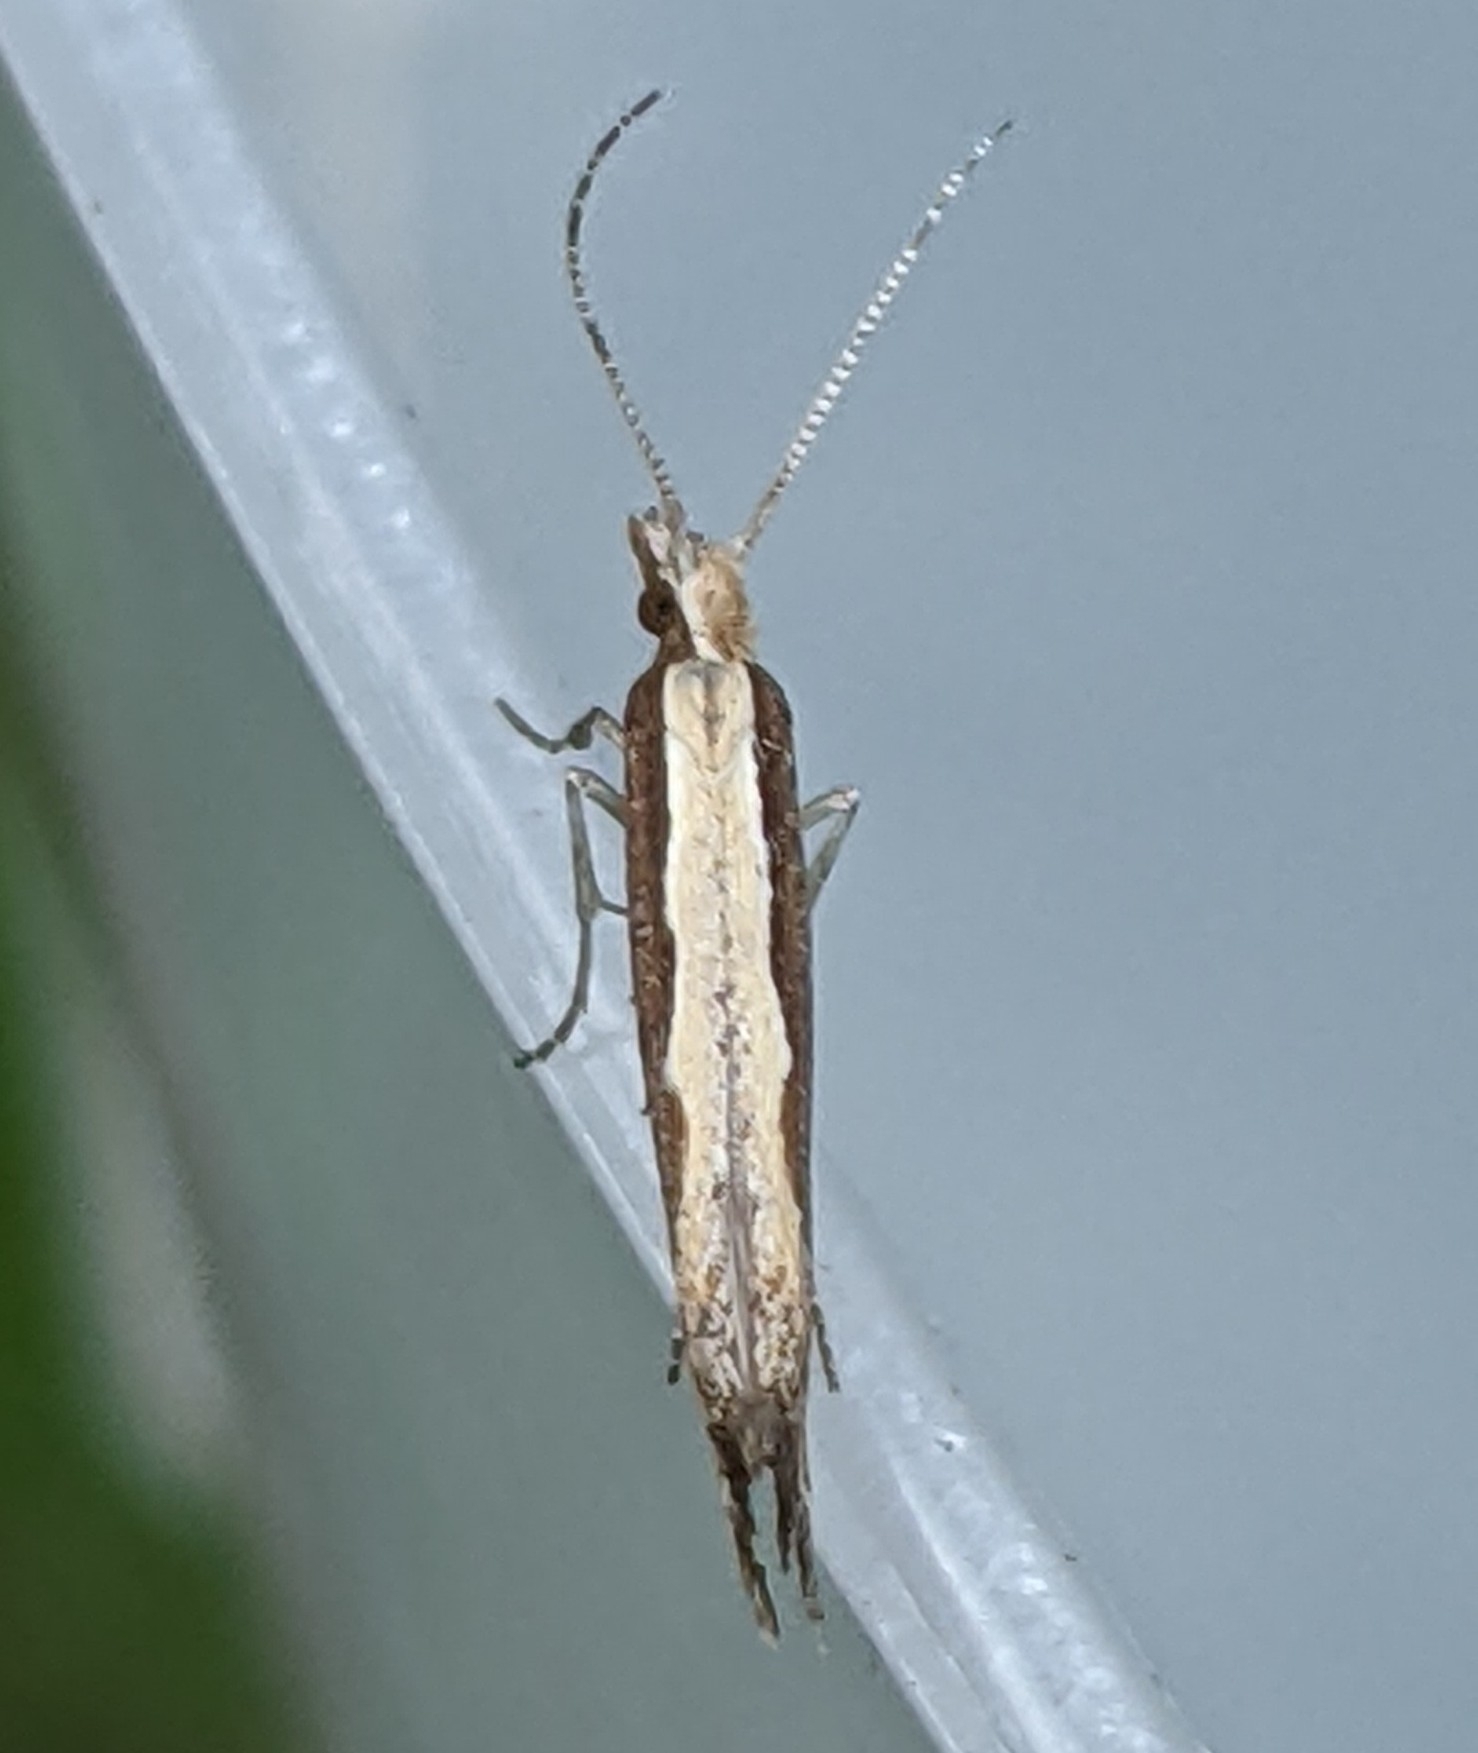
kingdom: Animalia
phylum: Arthropoda
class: Insecta
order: Lepidoptera
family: Plutellidae
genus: Plutella
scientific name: Plutella xylostella
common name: Diamond-back moth
